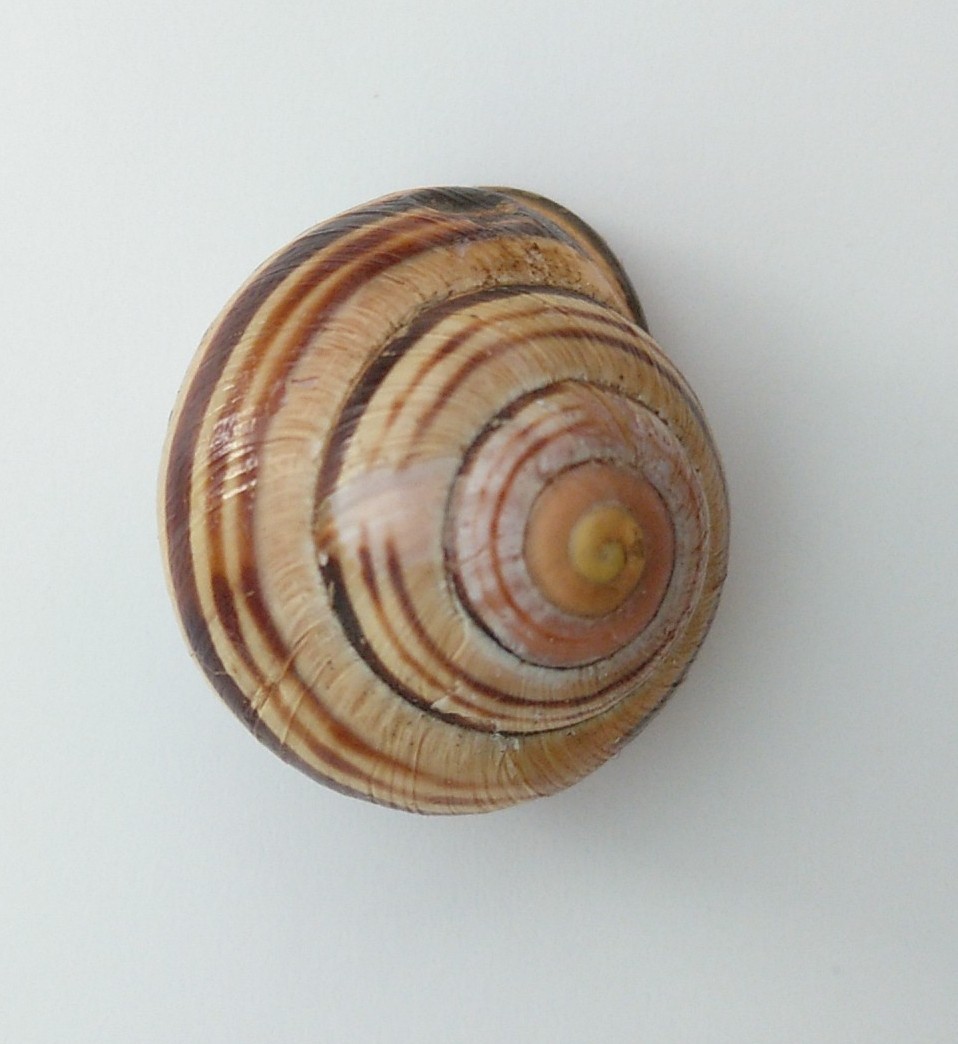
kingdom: Animalia
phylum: Mollusca
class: Gastropoda
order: Stylommatophora
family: Helicidae
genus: Cepaea
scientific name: Cepaea nemoralis
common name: Grovesnail
